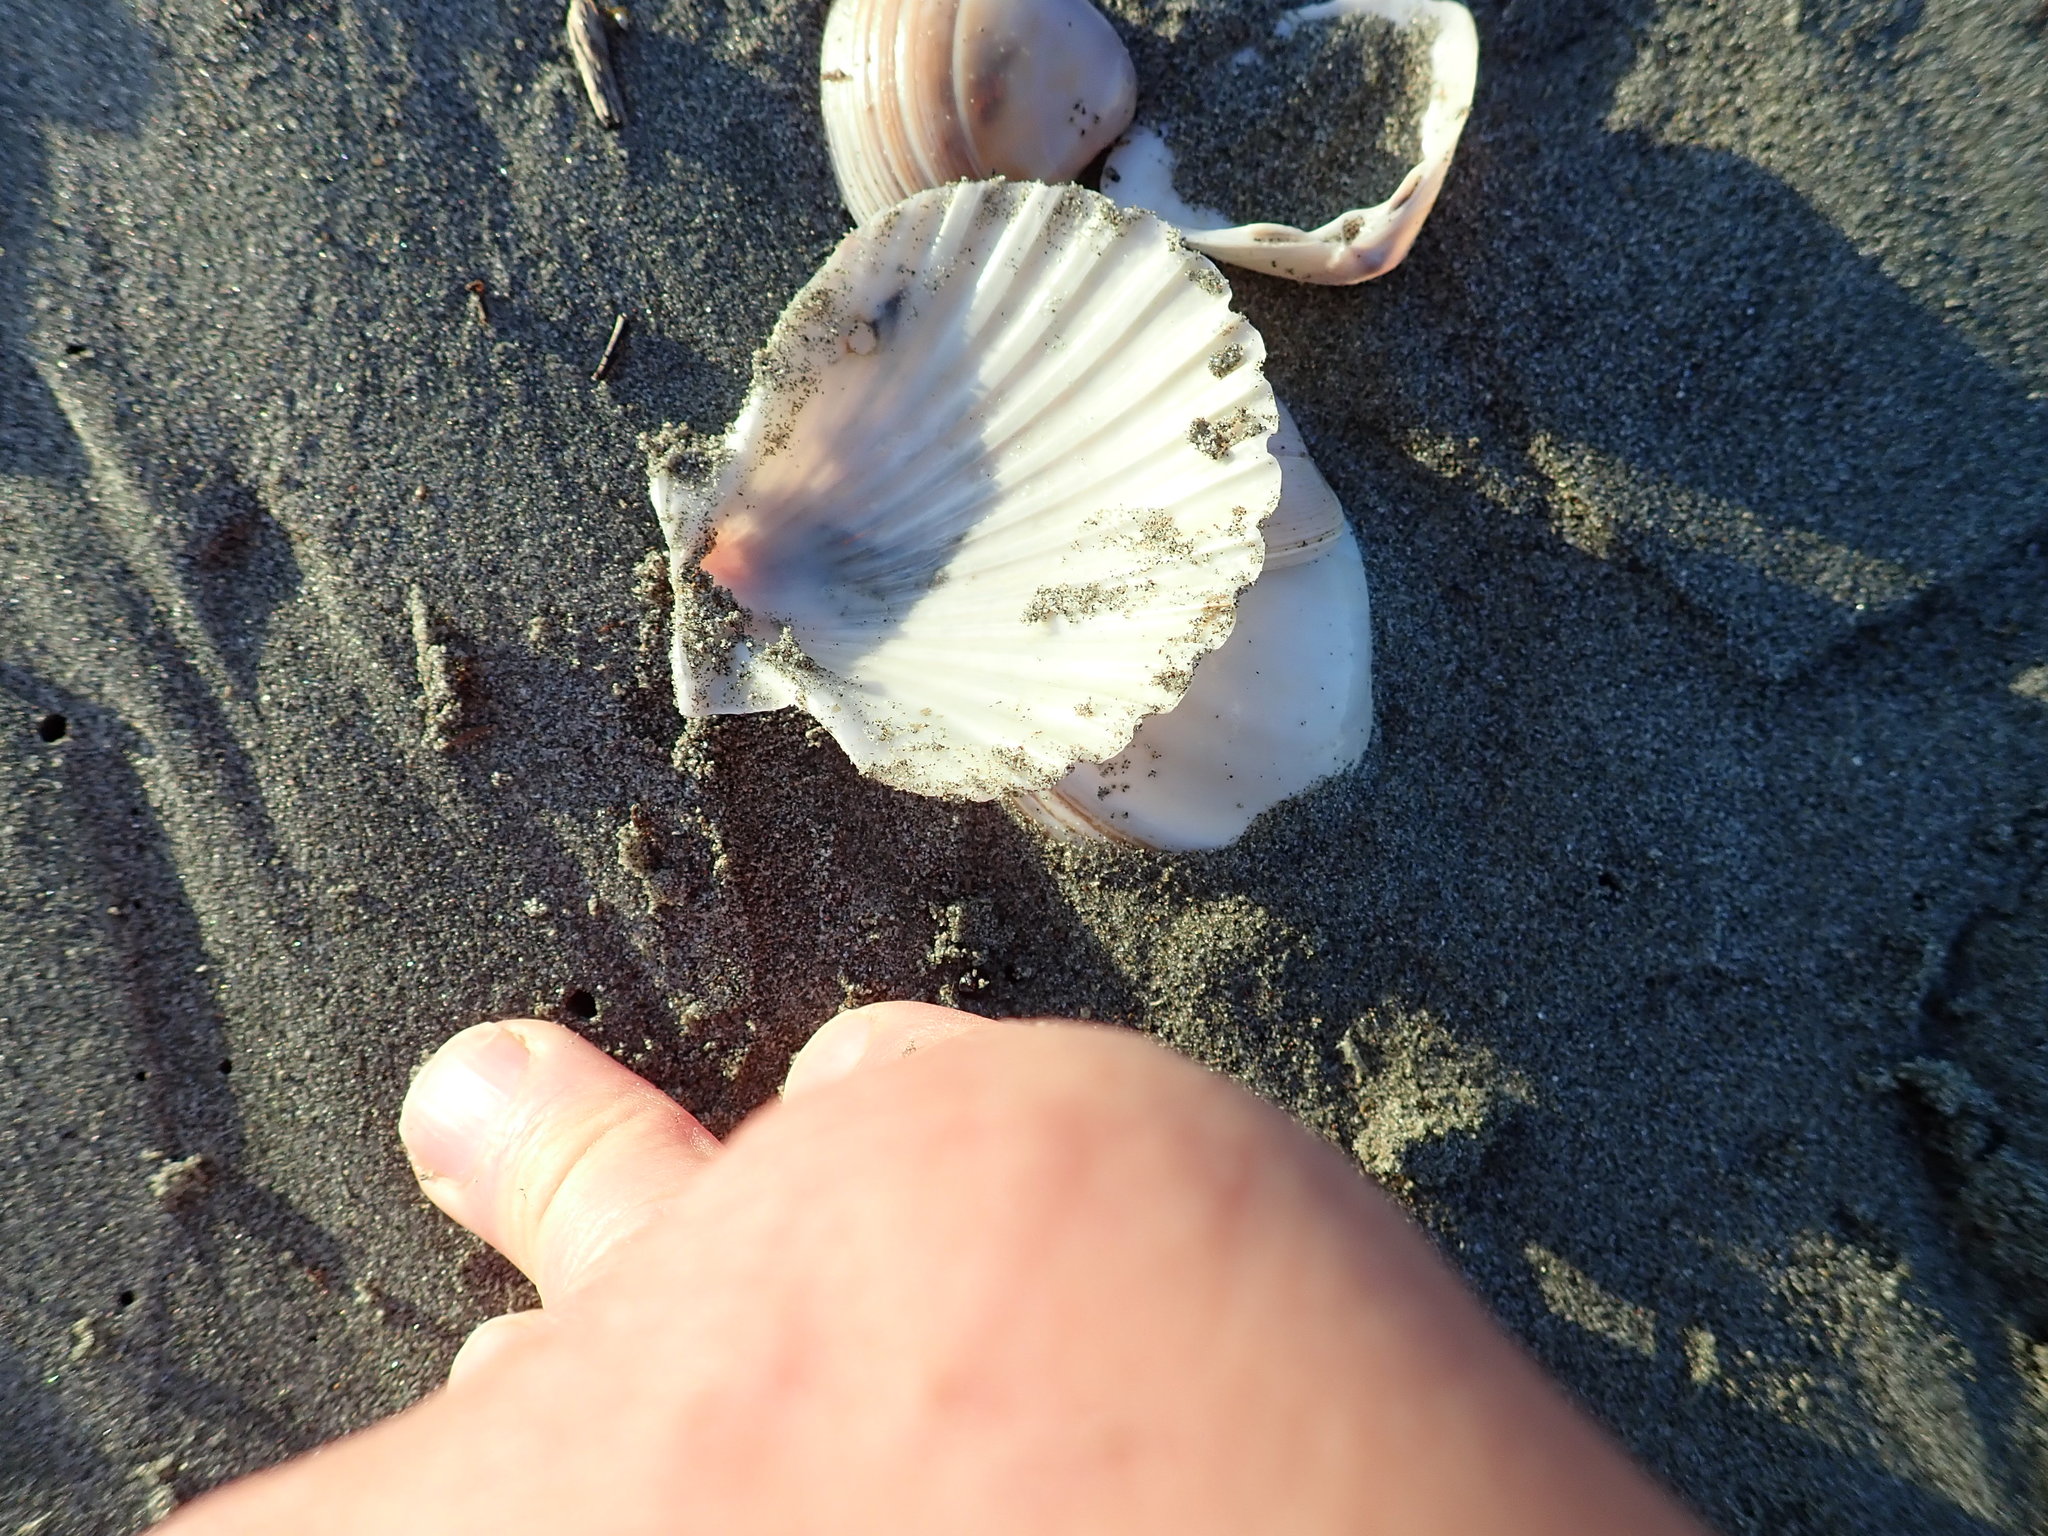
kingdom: Animalia
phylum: Mollusca
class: Bivalvia
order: Pectinida
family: Pectinidae
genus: Pecten
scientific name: Pecten novaezelandiae
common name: New zealand scallop
